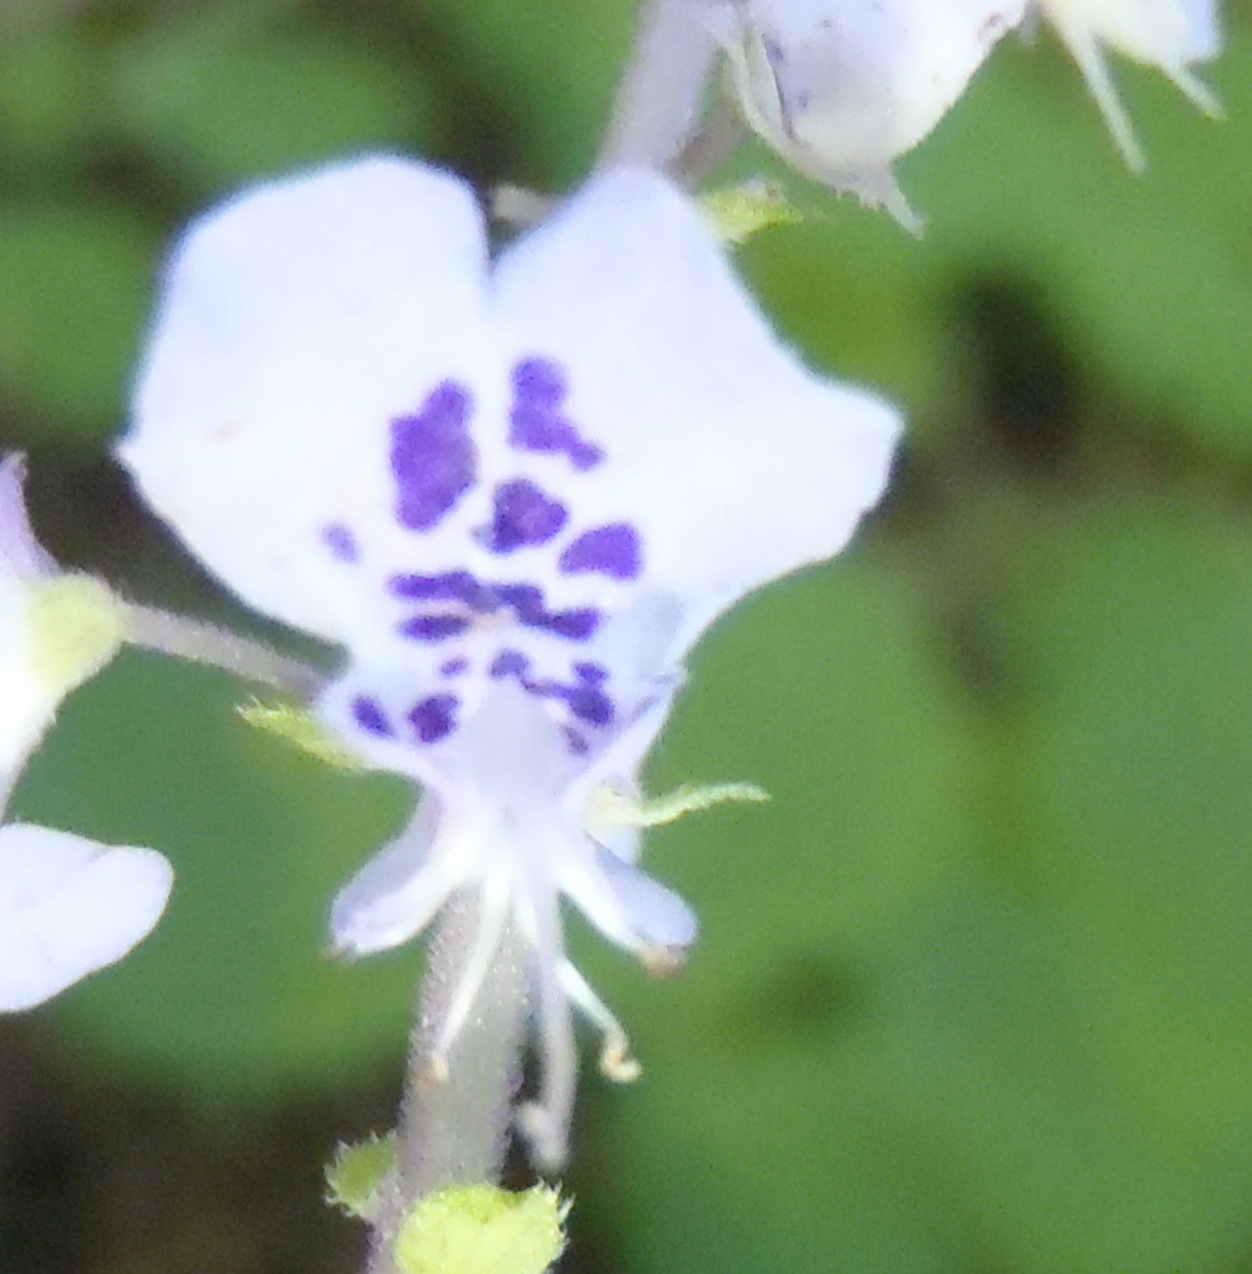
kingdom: Plantae
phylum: Tracheophyta
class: Magnoliopsida
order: Lamiales
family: Lamiaceae
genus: Plectranthus
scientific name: Plectranthus fruticosus
